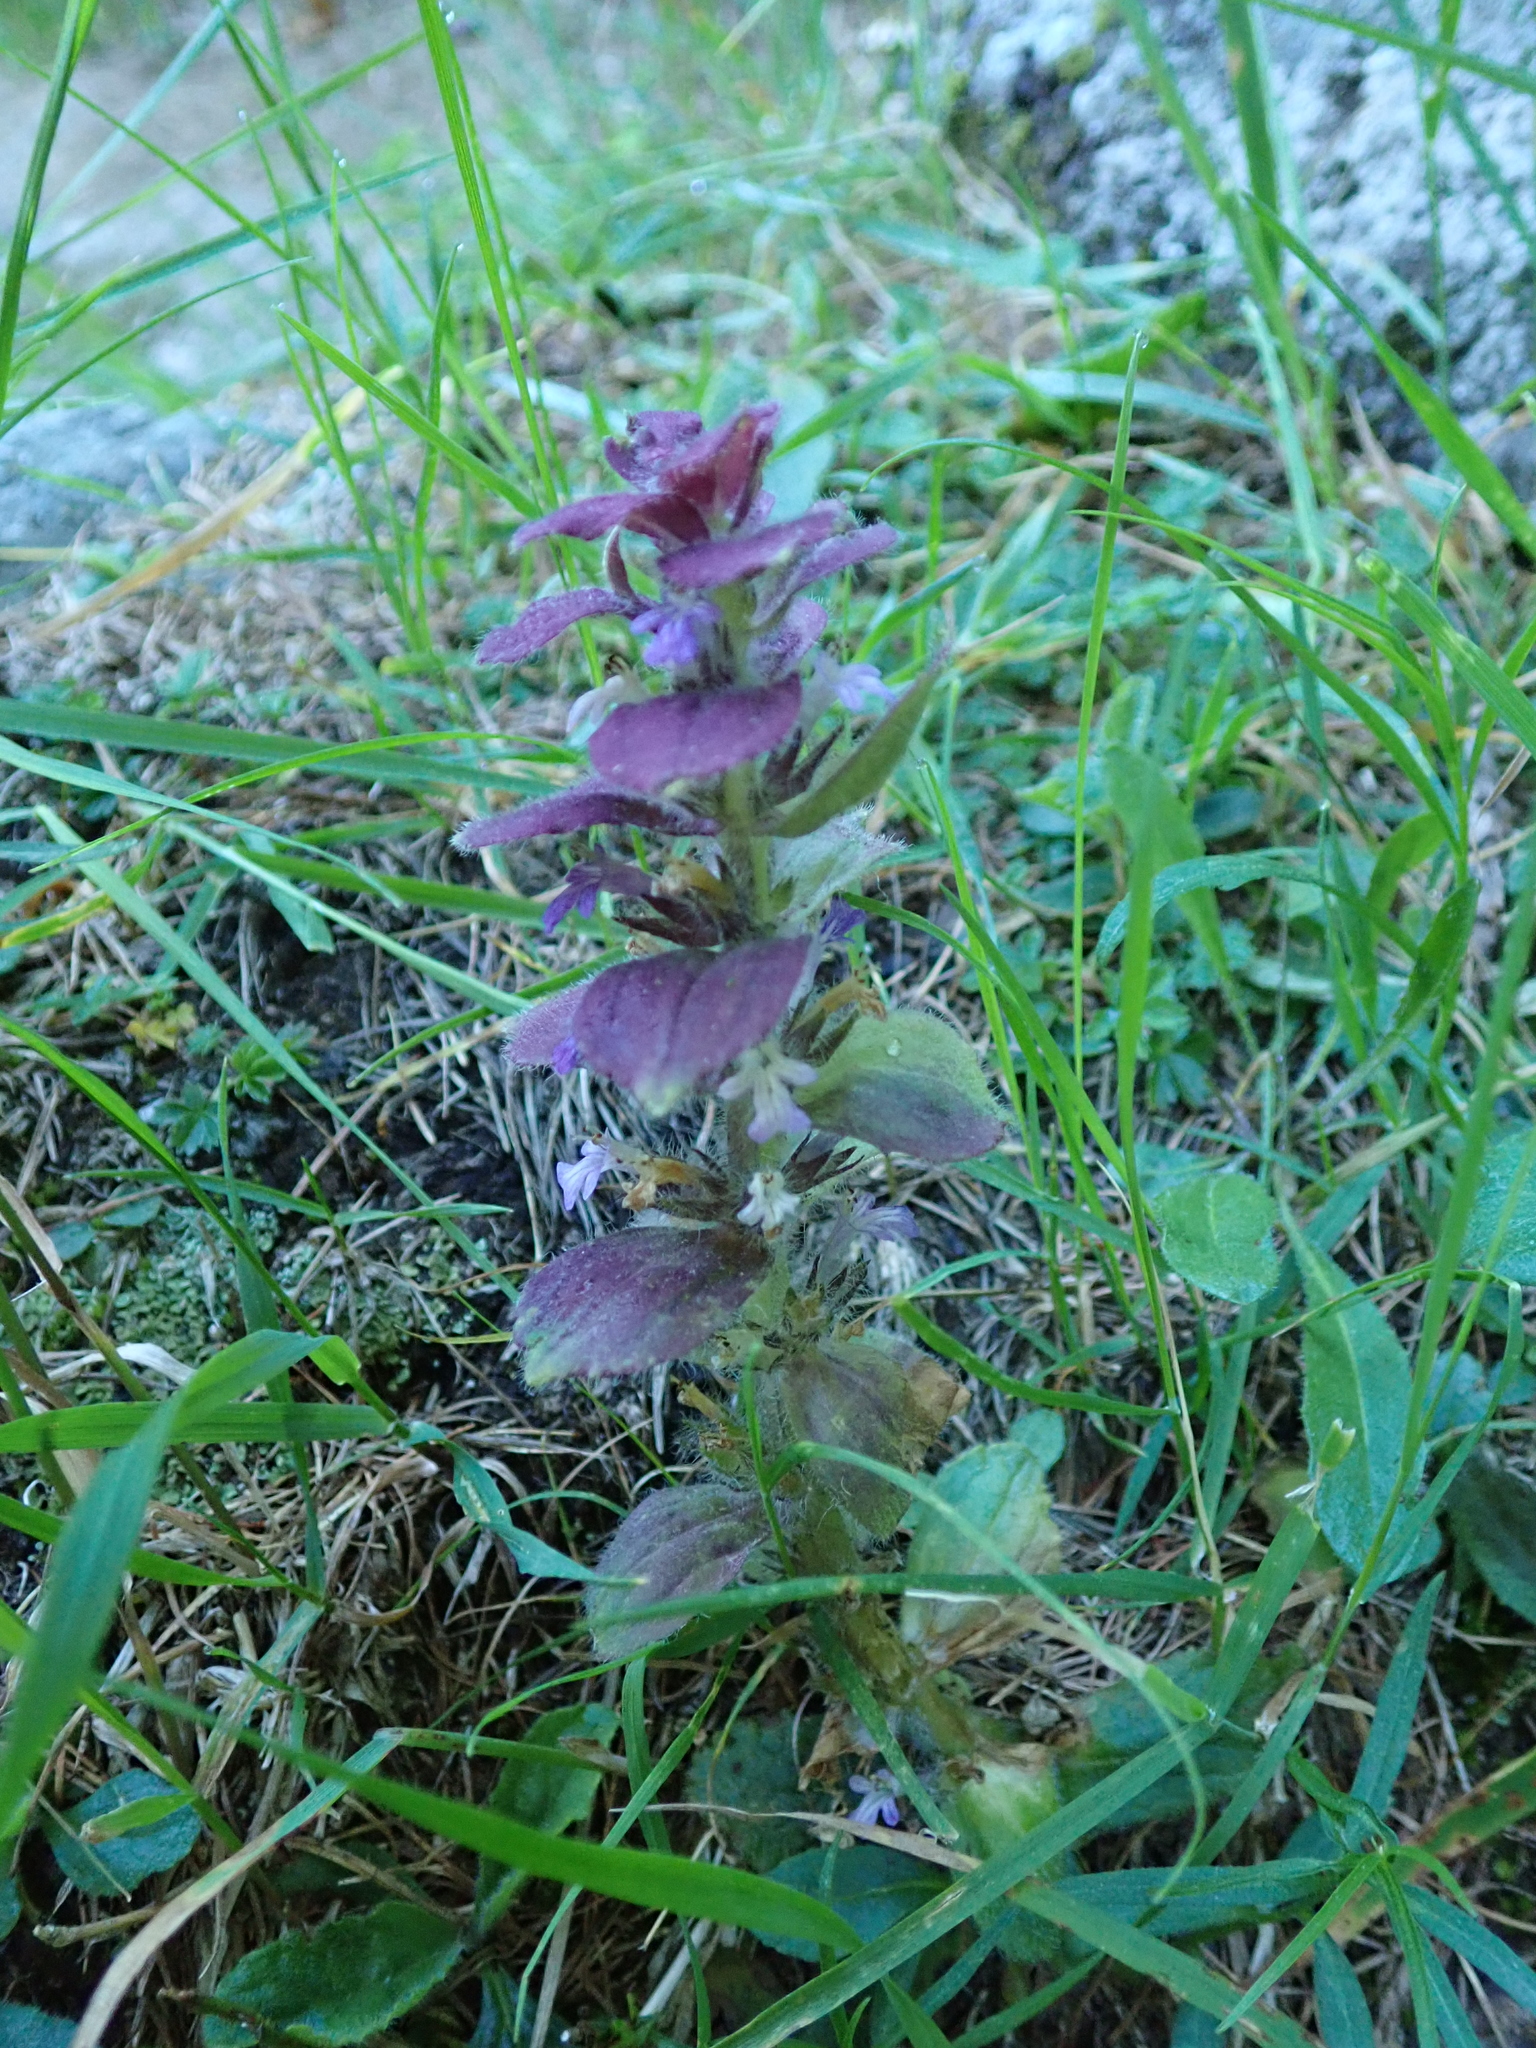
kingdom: Plantae
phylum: Tracheophyta
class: Magnoliopsida
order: Lamiales
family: Lamiaceae
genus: Ajuga
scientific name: Ajuga pyramidalis
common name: Pyramid bugle
